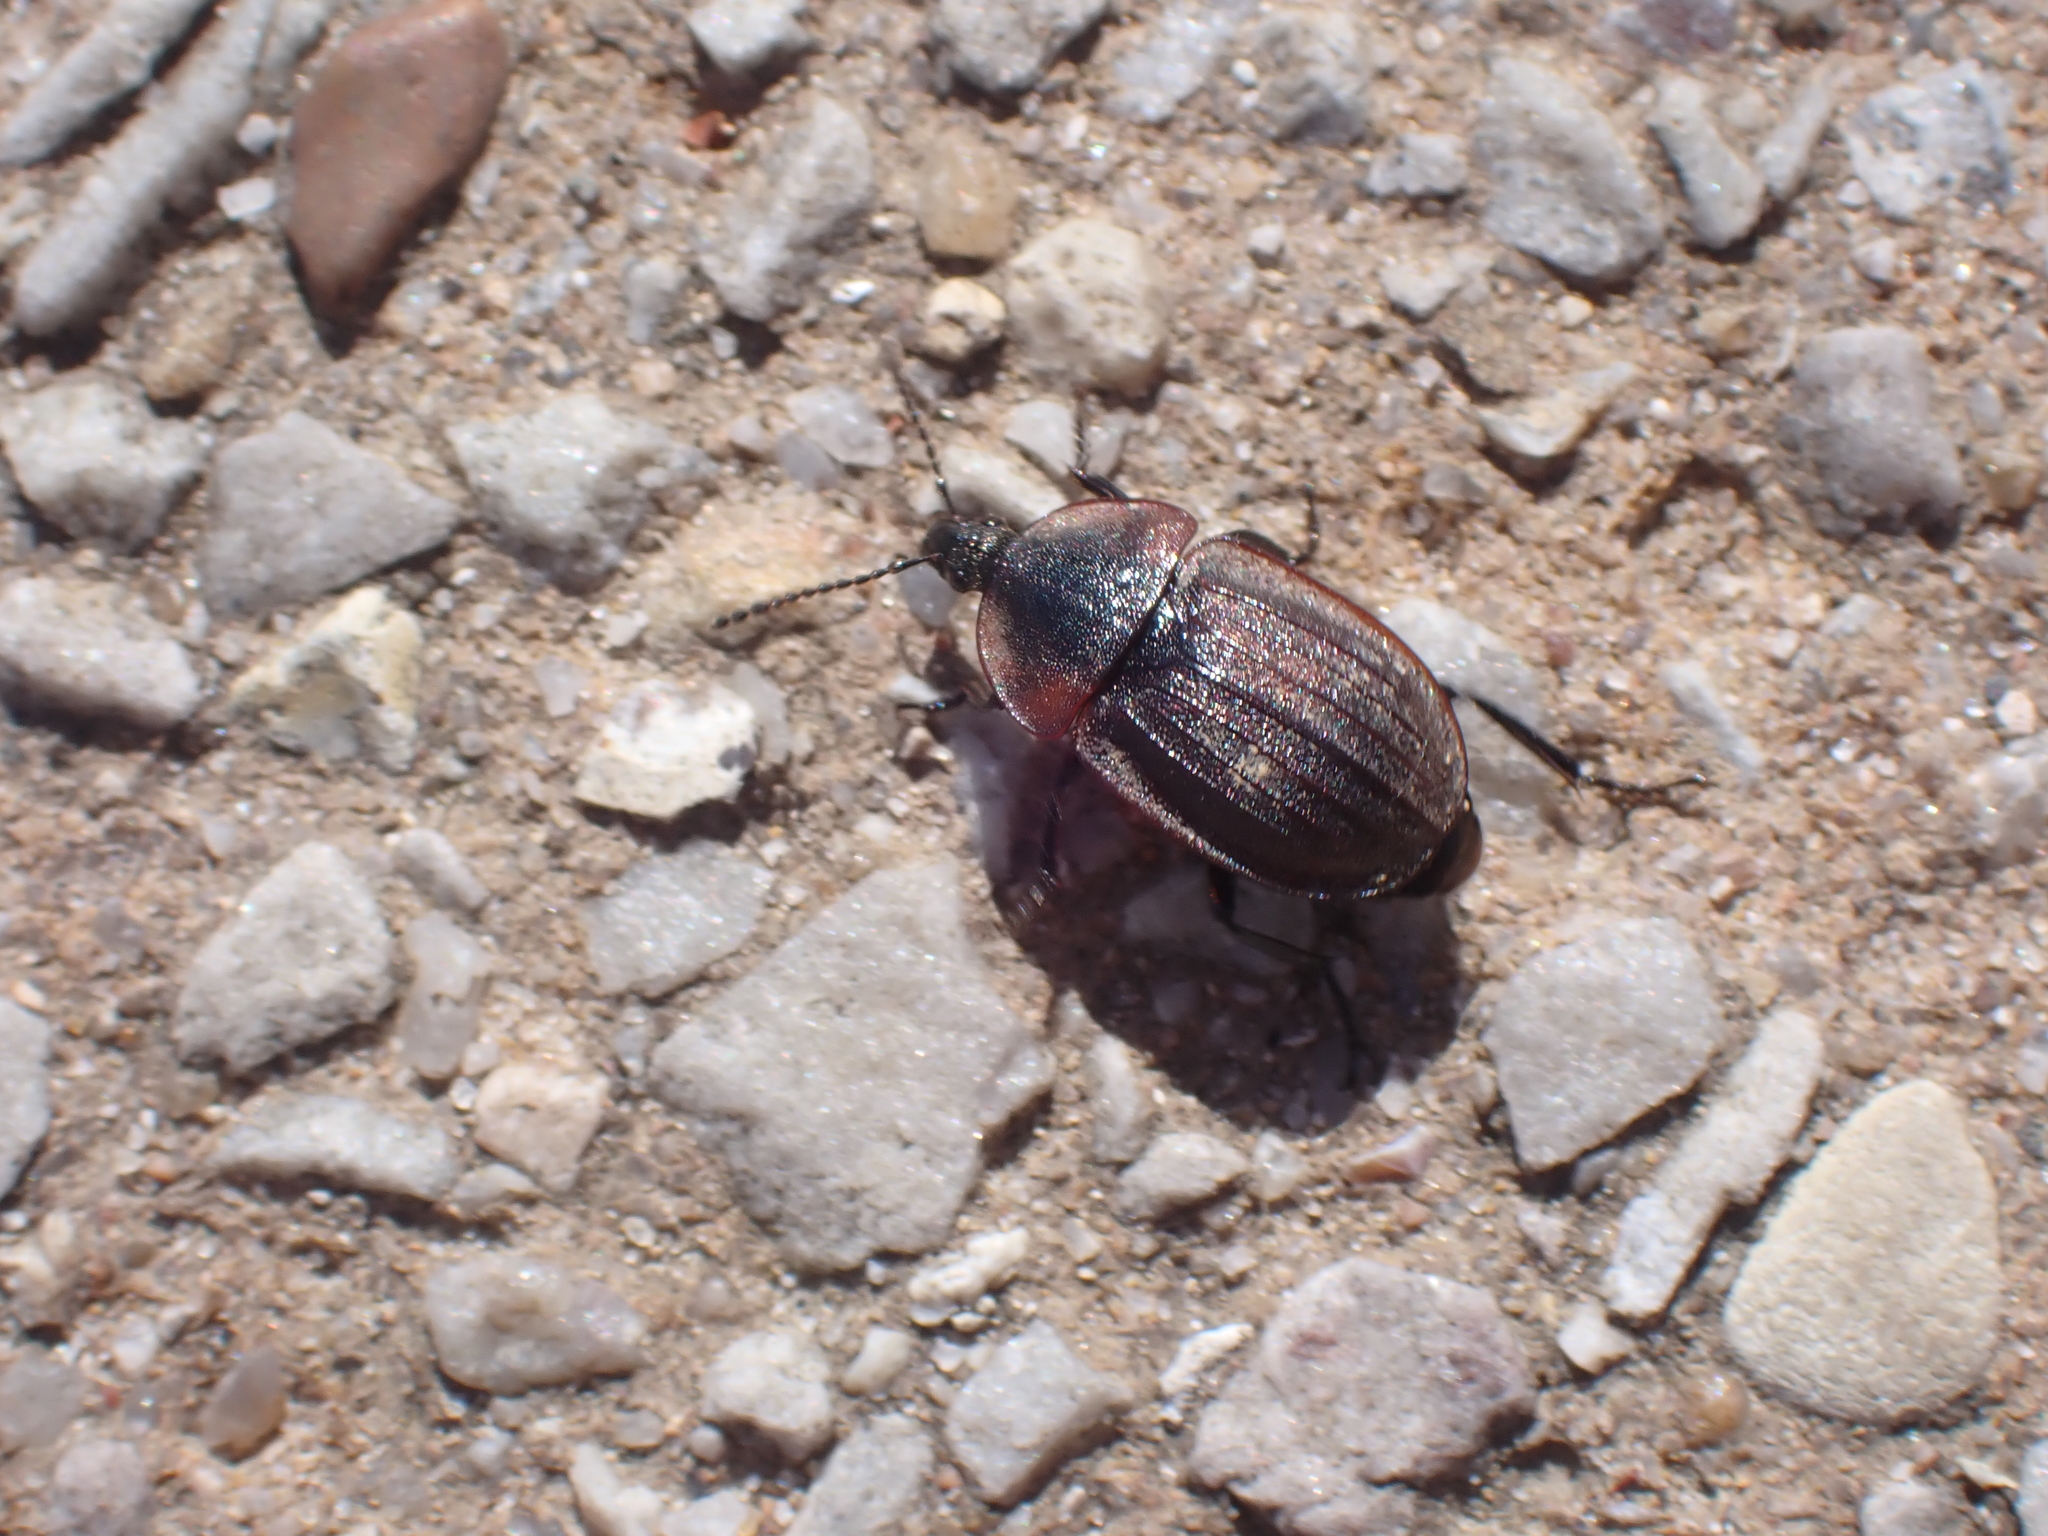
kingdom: Animalia
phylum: Arthropoda
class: Insecta
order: Coleoptera
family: Staphylinidae
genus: Silpha
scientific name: Silpha atrata
